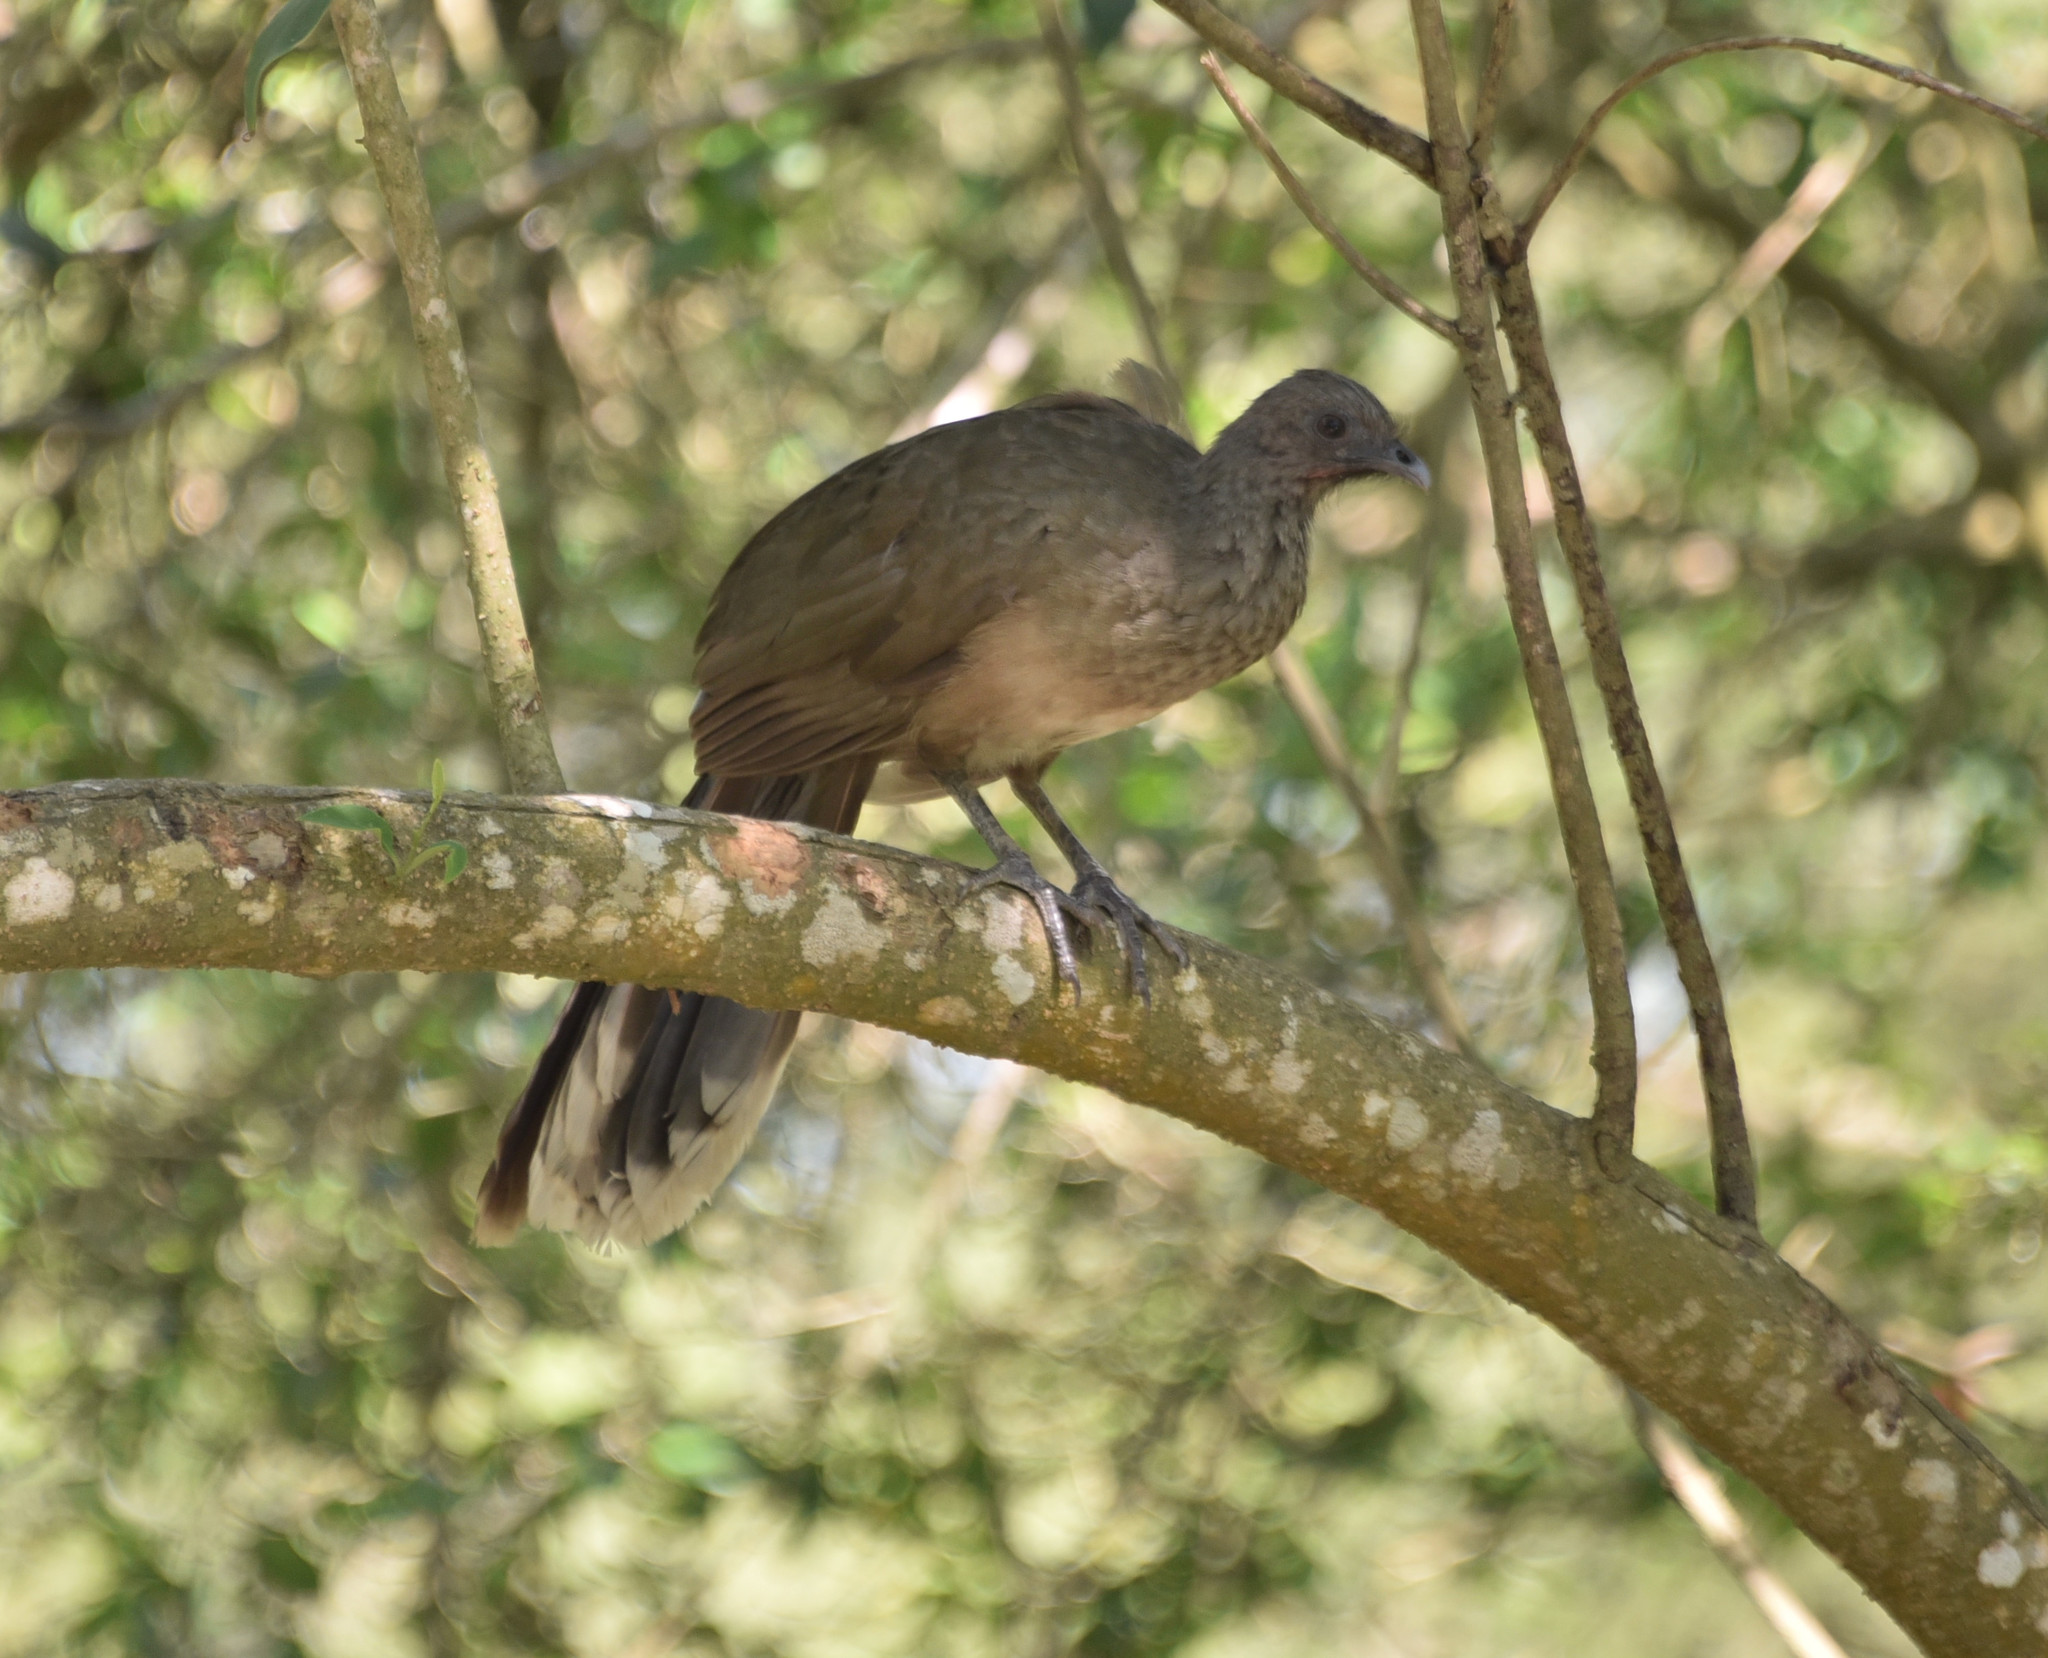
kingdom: Animalia
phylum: Chordata
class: Aves
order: Galliformes
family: Cracidae
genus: Ortalis
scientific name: Ortalis vetula
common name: Plain chachalaca
